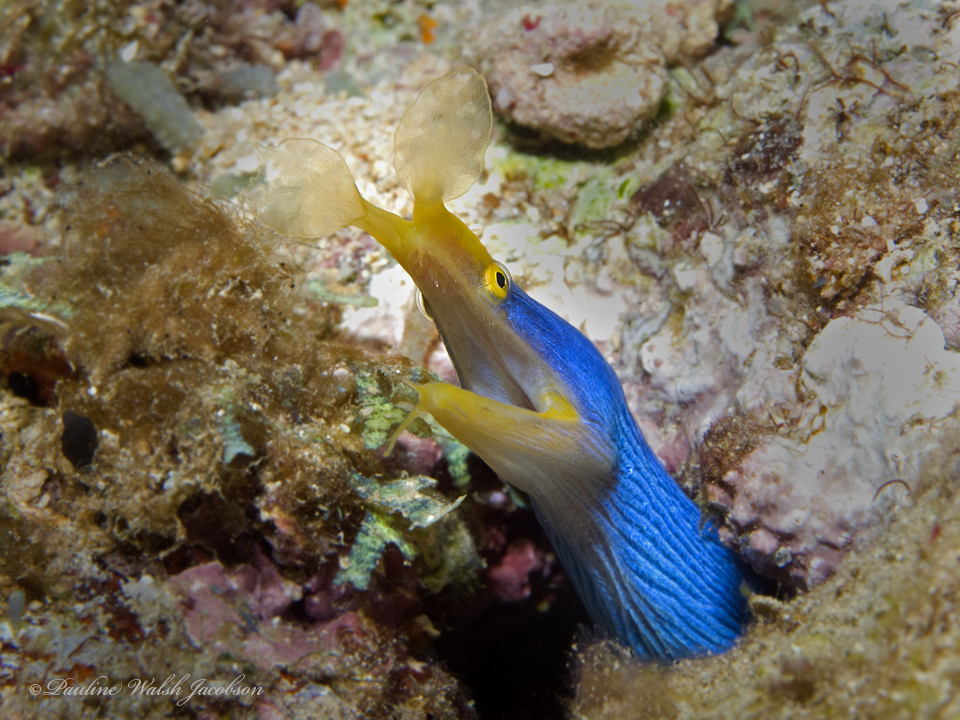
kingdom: Animalia
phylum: Chordata
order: Anguilliformes
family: Muraenidae
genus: Rhinomuraena
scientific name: Rhinomuraena quaesita
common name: Ribbon eel
